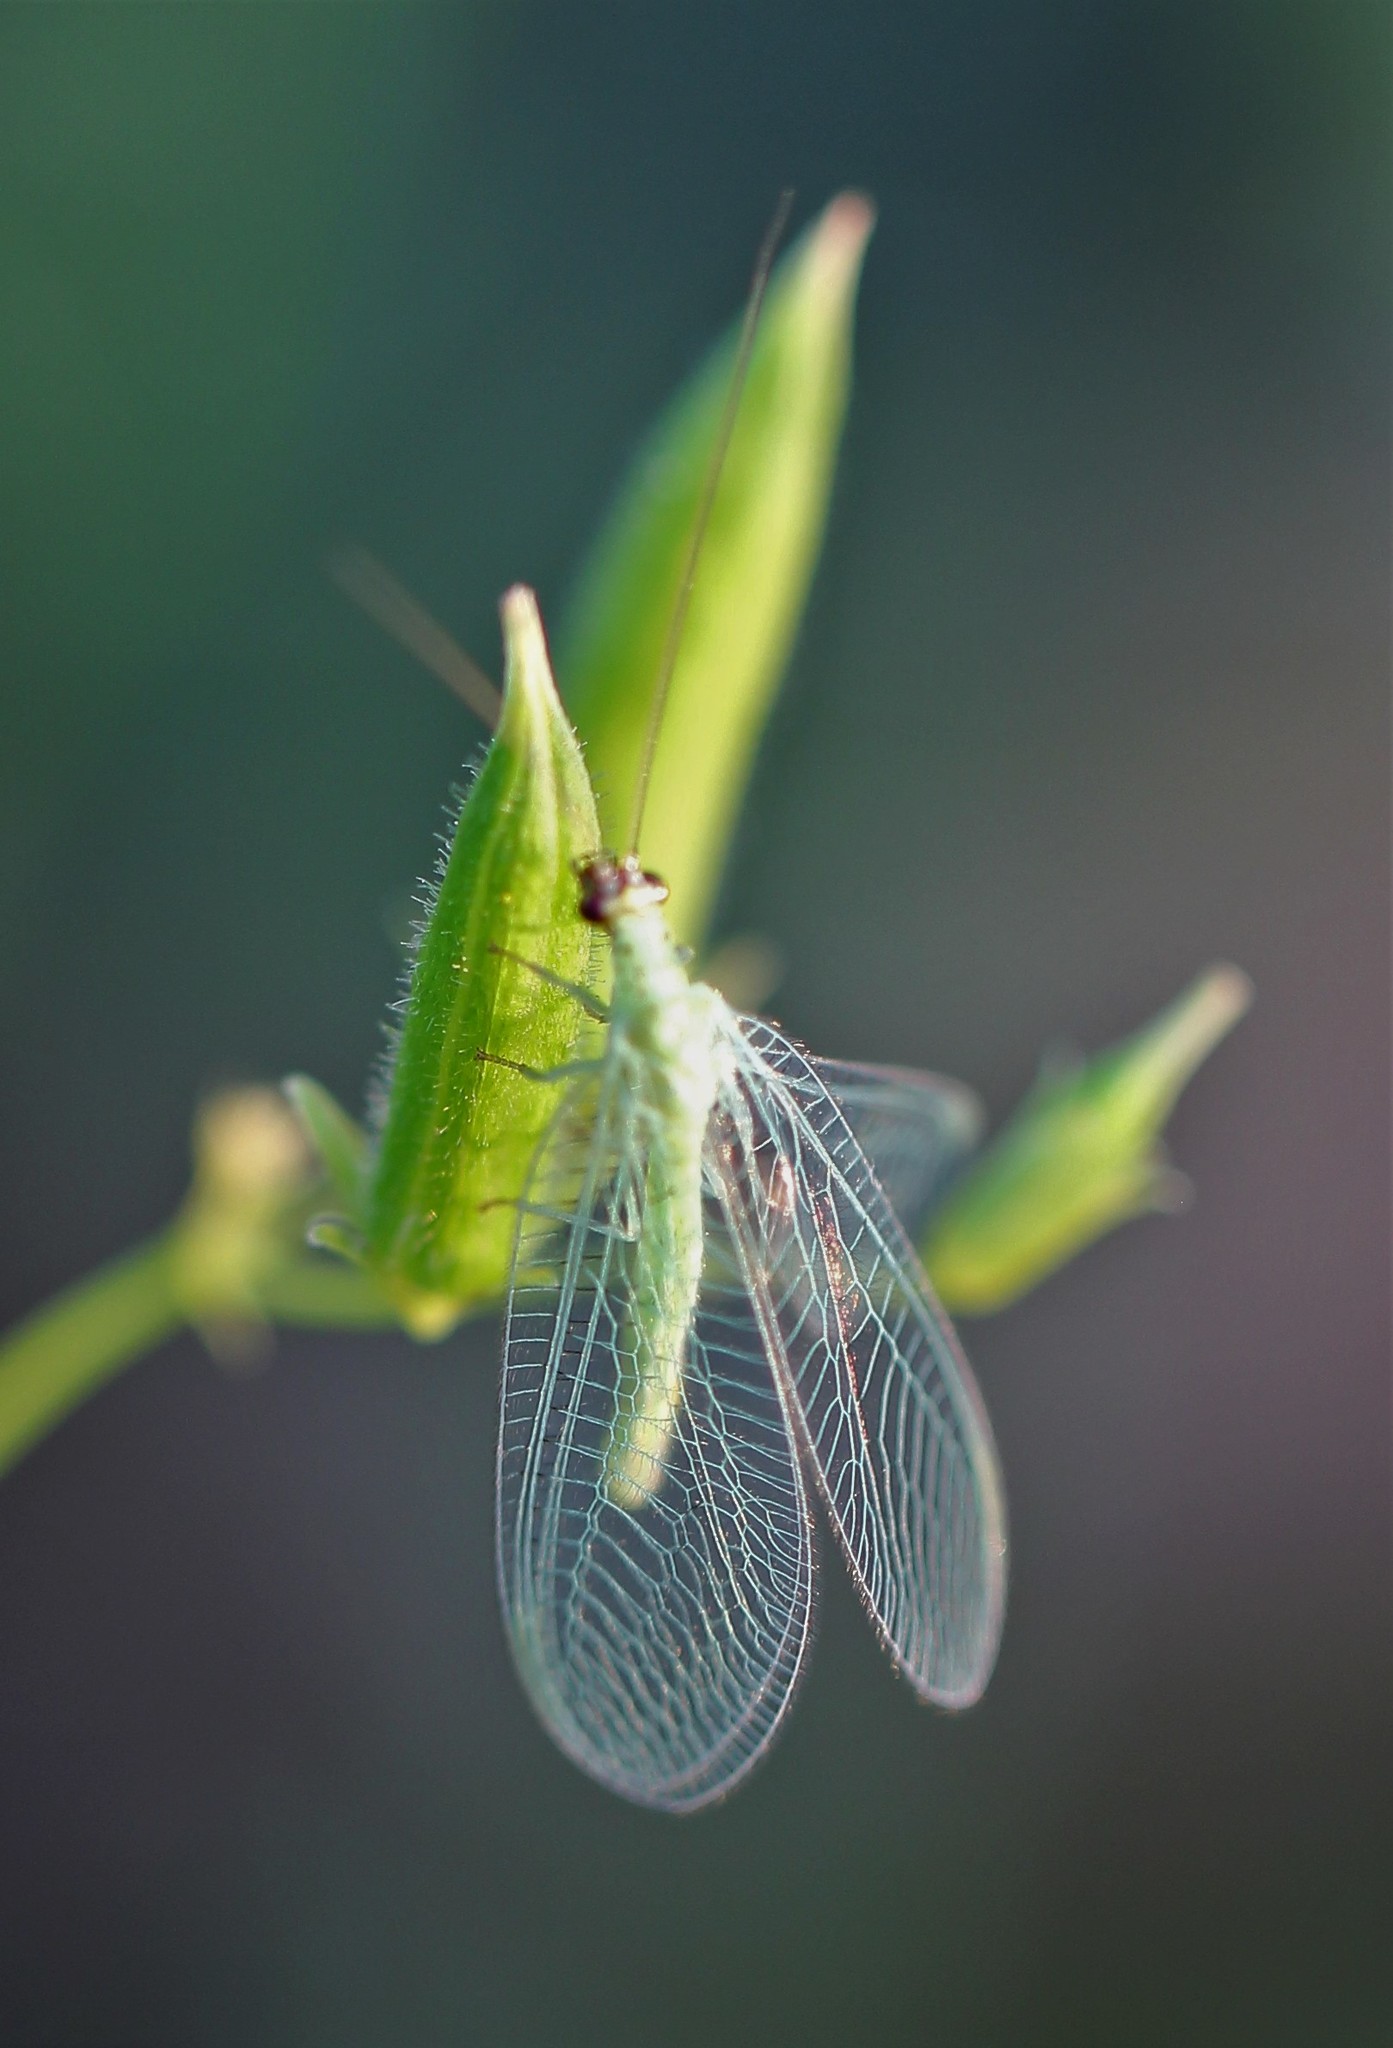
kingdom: Animalia
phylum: Arthropoda
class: Insecta
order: Neuroptera
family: Chrysopidae
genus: Chrysopa
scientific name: Chrysopa oculata
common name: Golden-eyed lacewing
